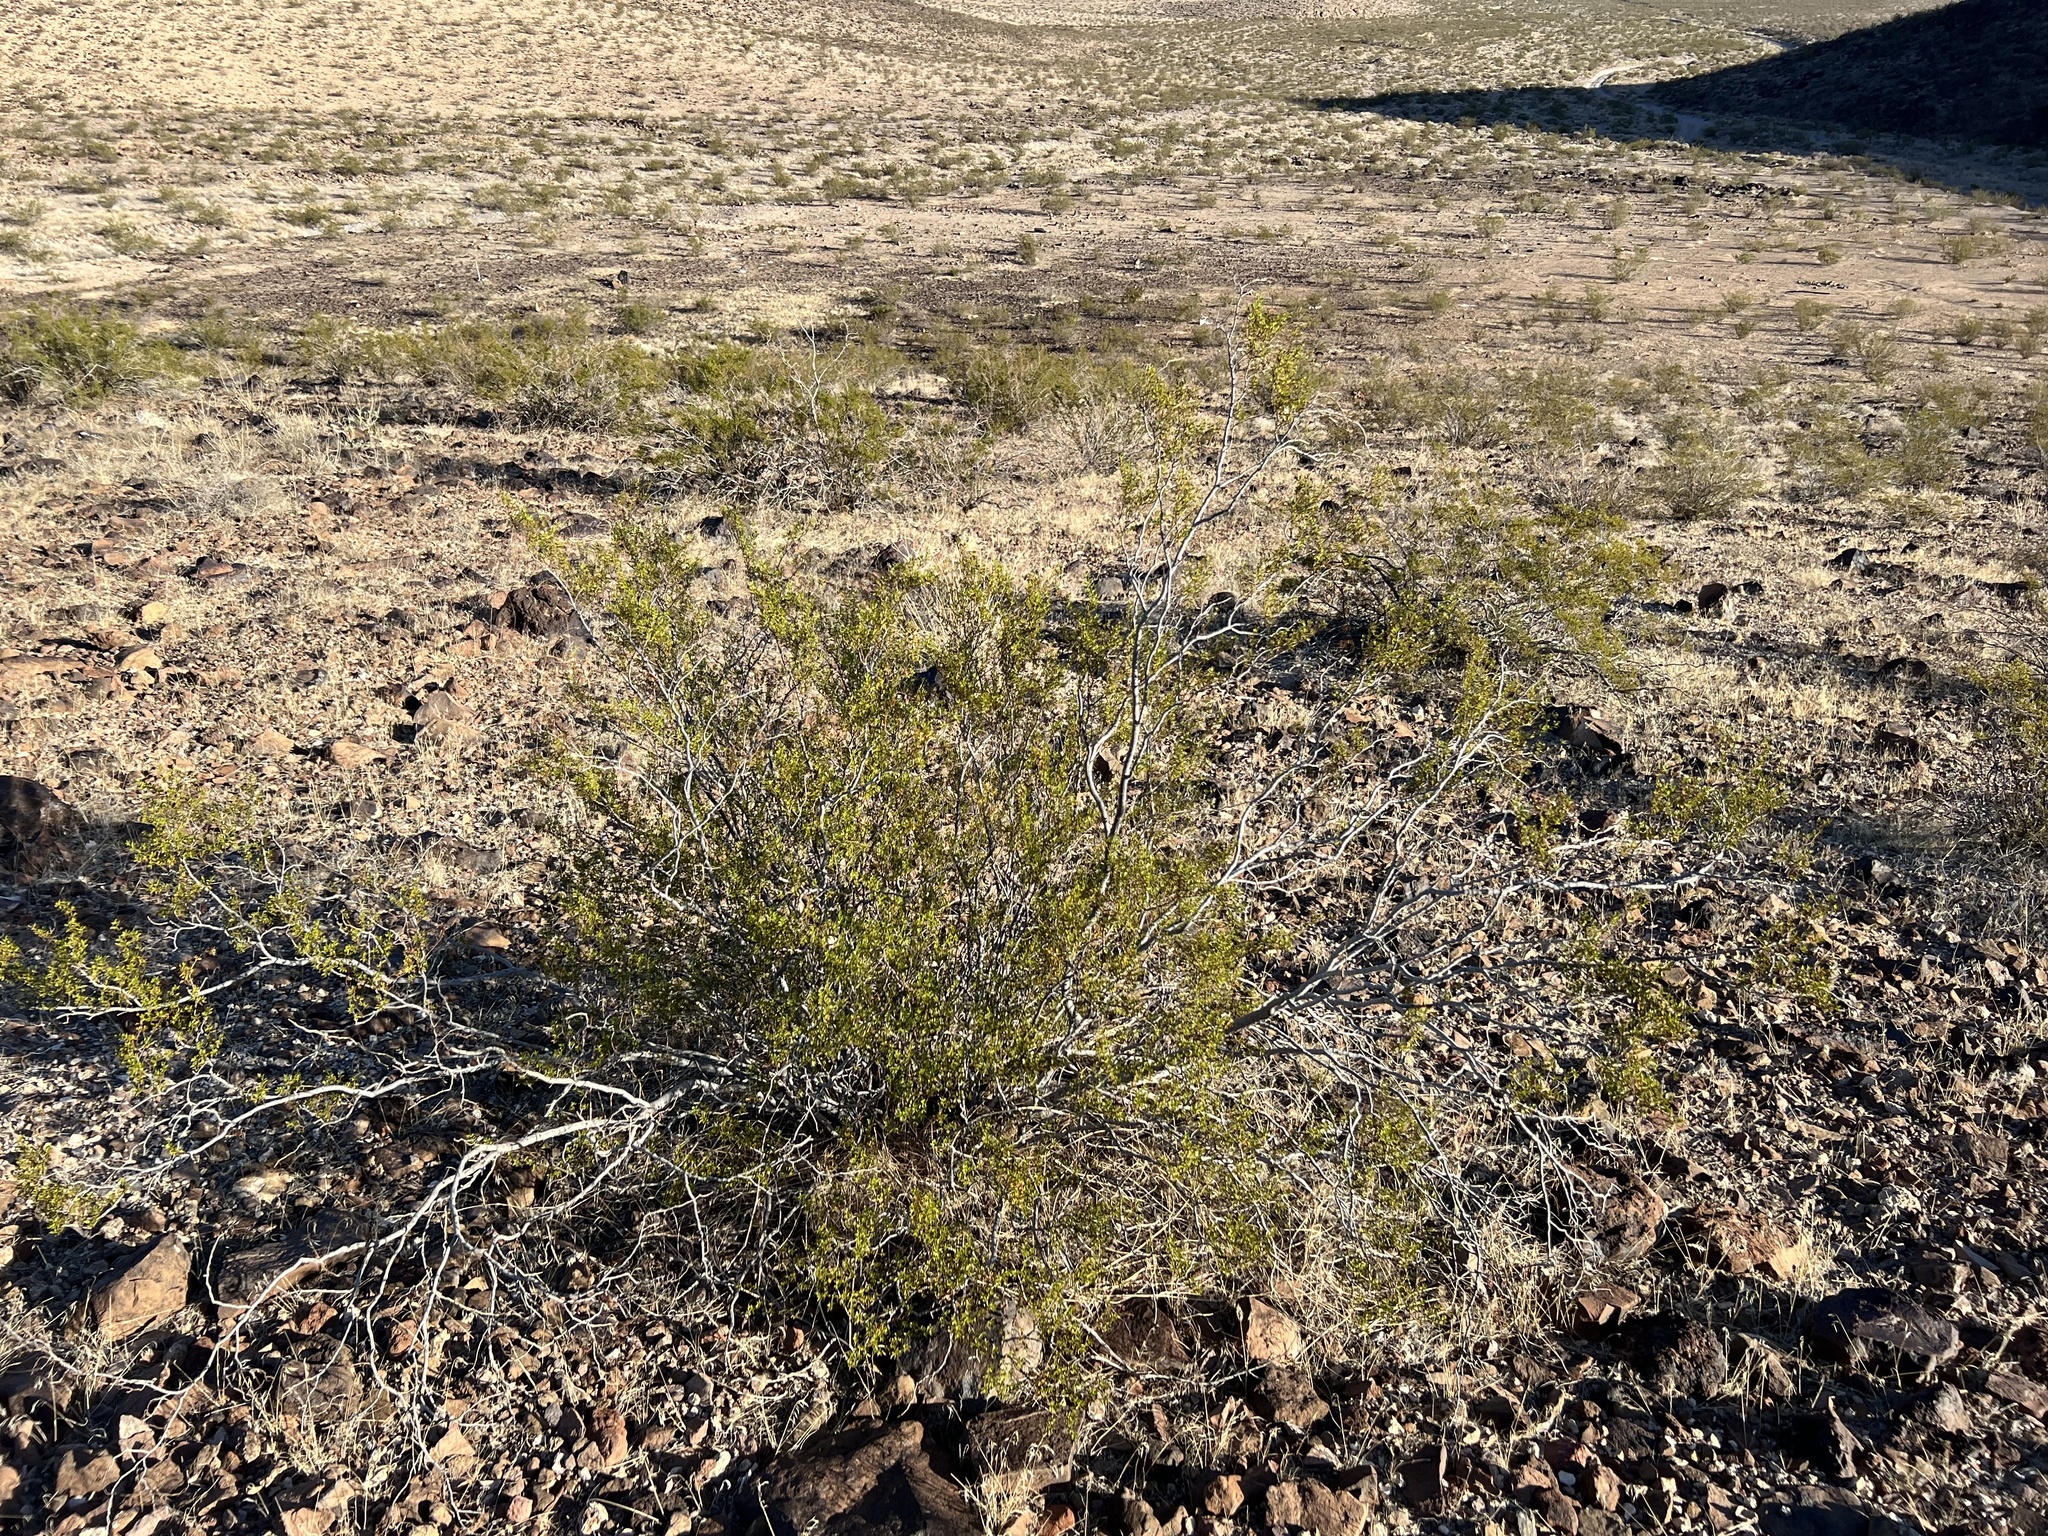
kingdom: Plantae
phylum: Tracheophyta
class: Magnoliopsida
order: Zygophyllales
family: Zygophyllaceae
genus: Larrea
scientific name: Larrea tridentata
